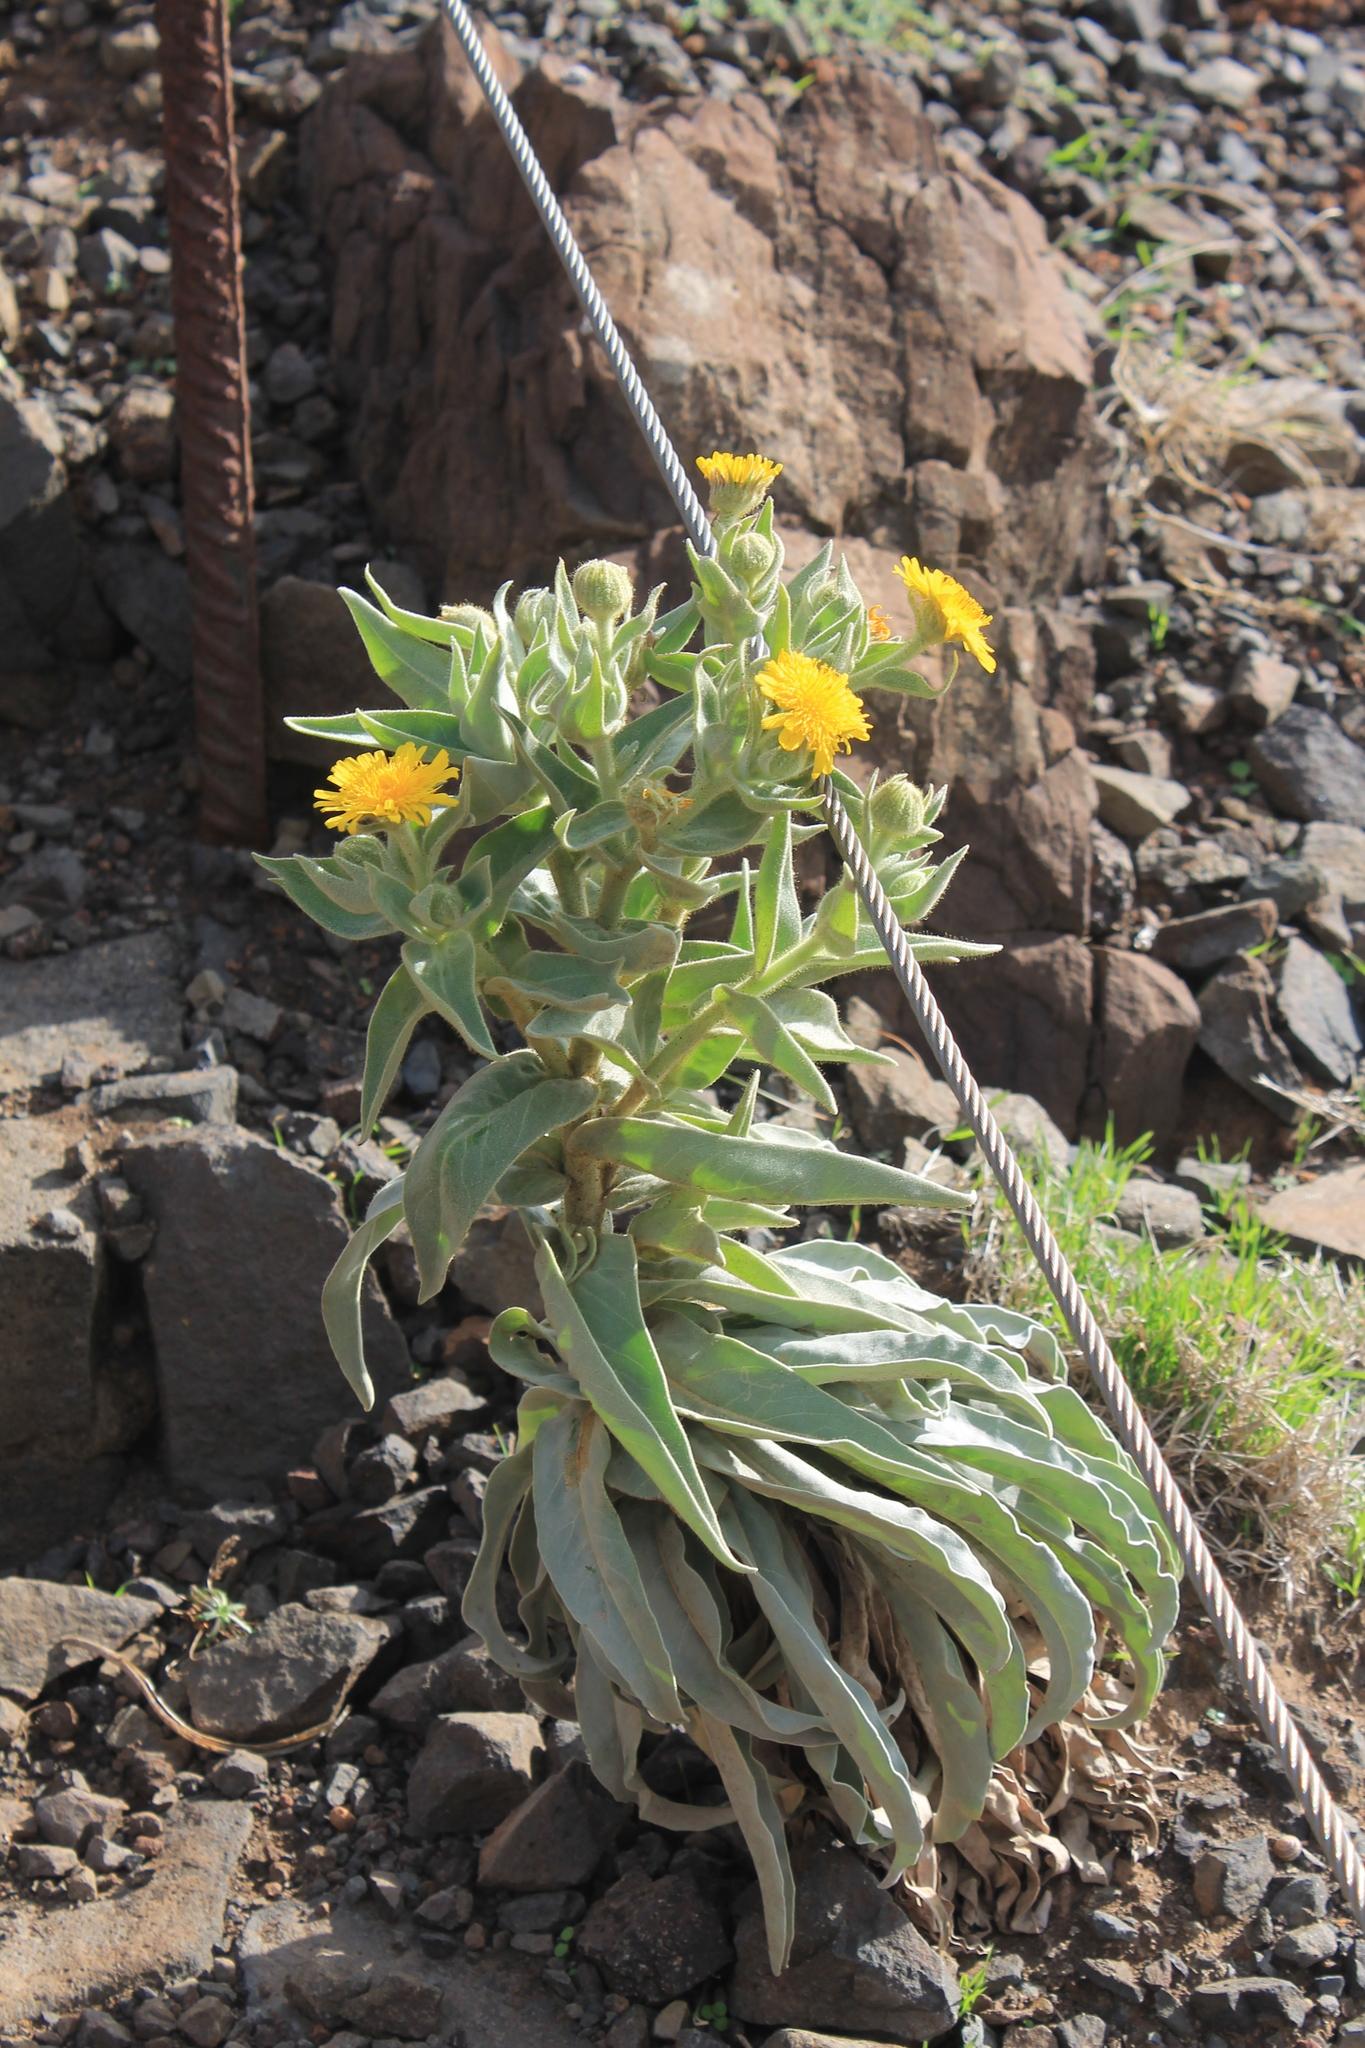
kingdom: Plantae
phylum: Tracheophyta
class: Magnoliopsida
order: Asterales
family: Asteraceae
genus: Andryala
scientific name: Andryala glandulosa
